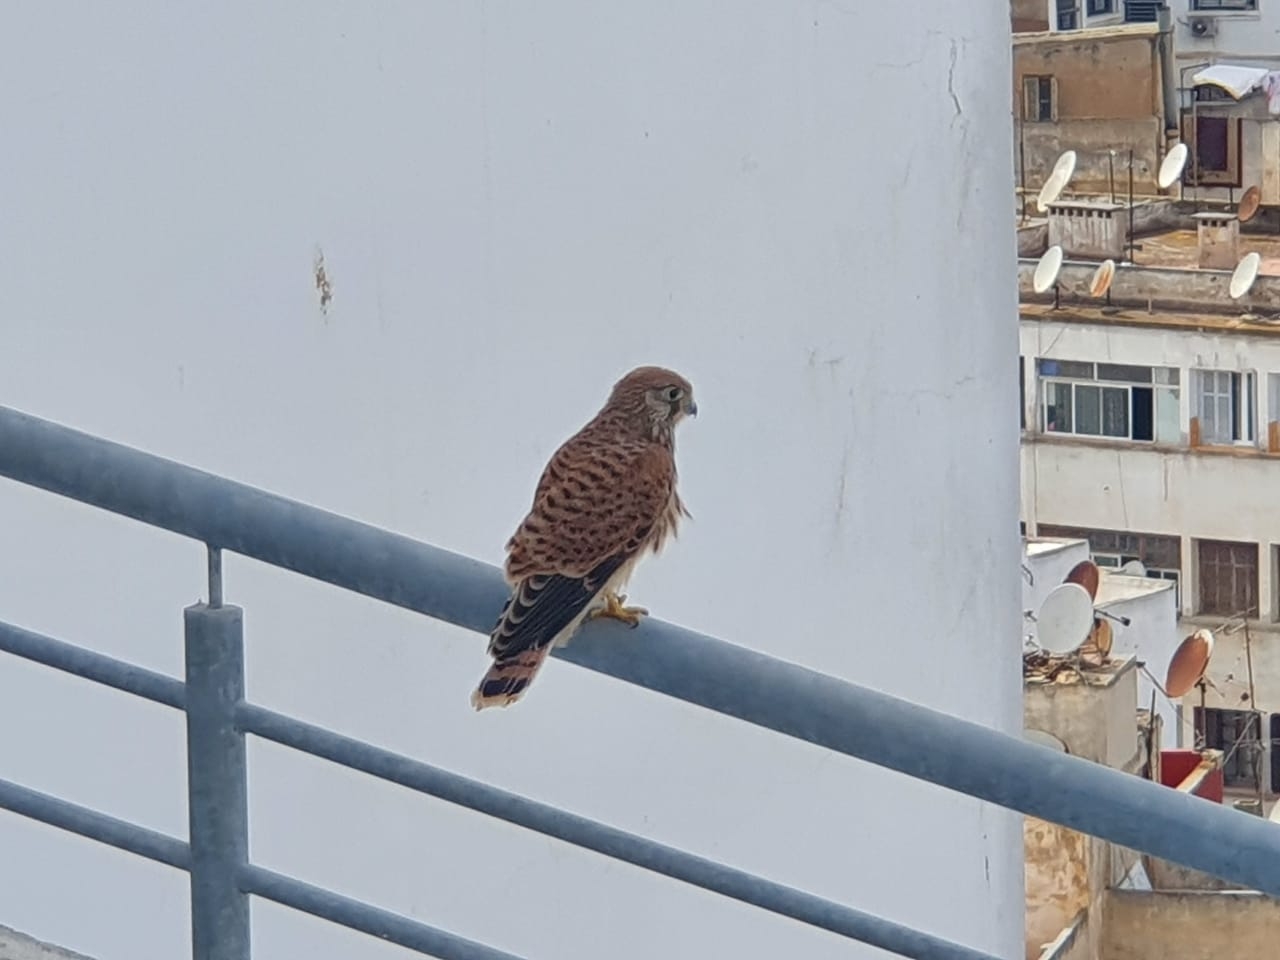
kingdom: Animalia
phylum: Chordata
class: Aves
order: Falconiformes
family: Falconidae
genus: Falco
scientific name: Falco tinnunculus
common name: Common kestrel
